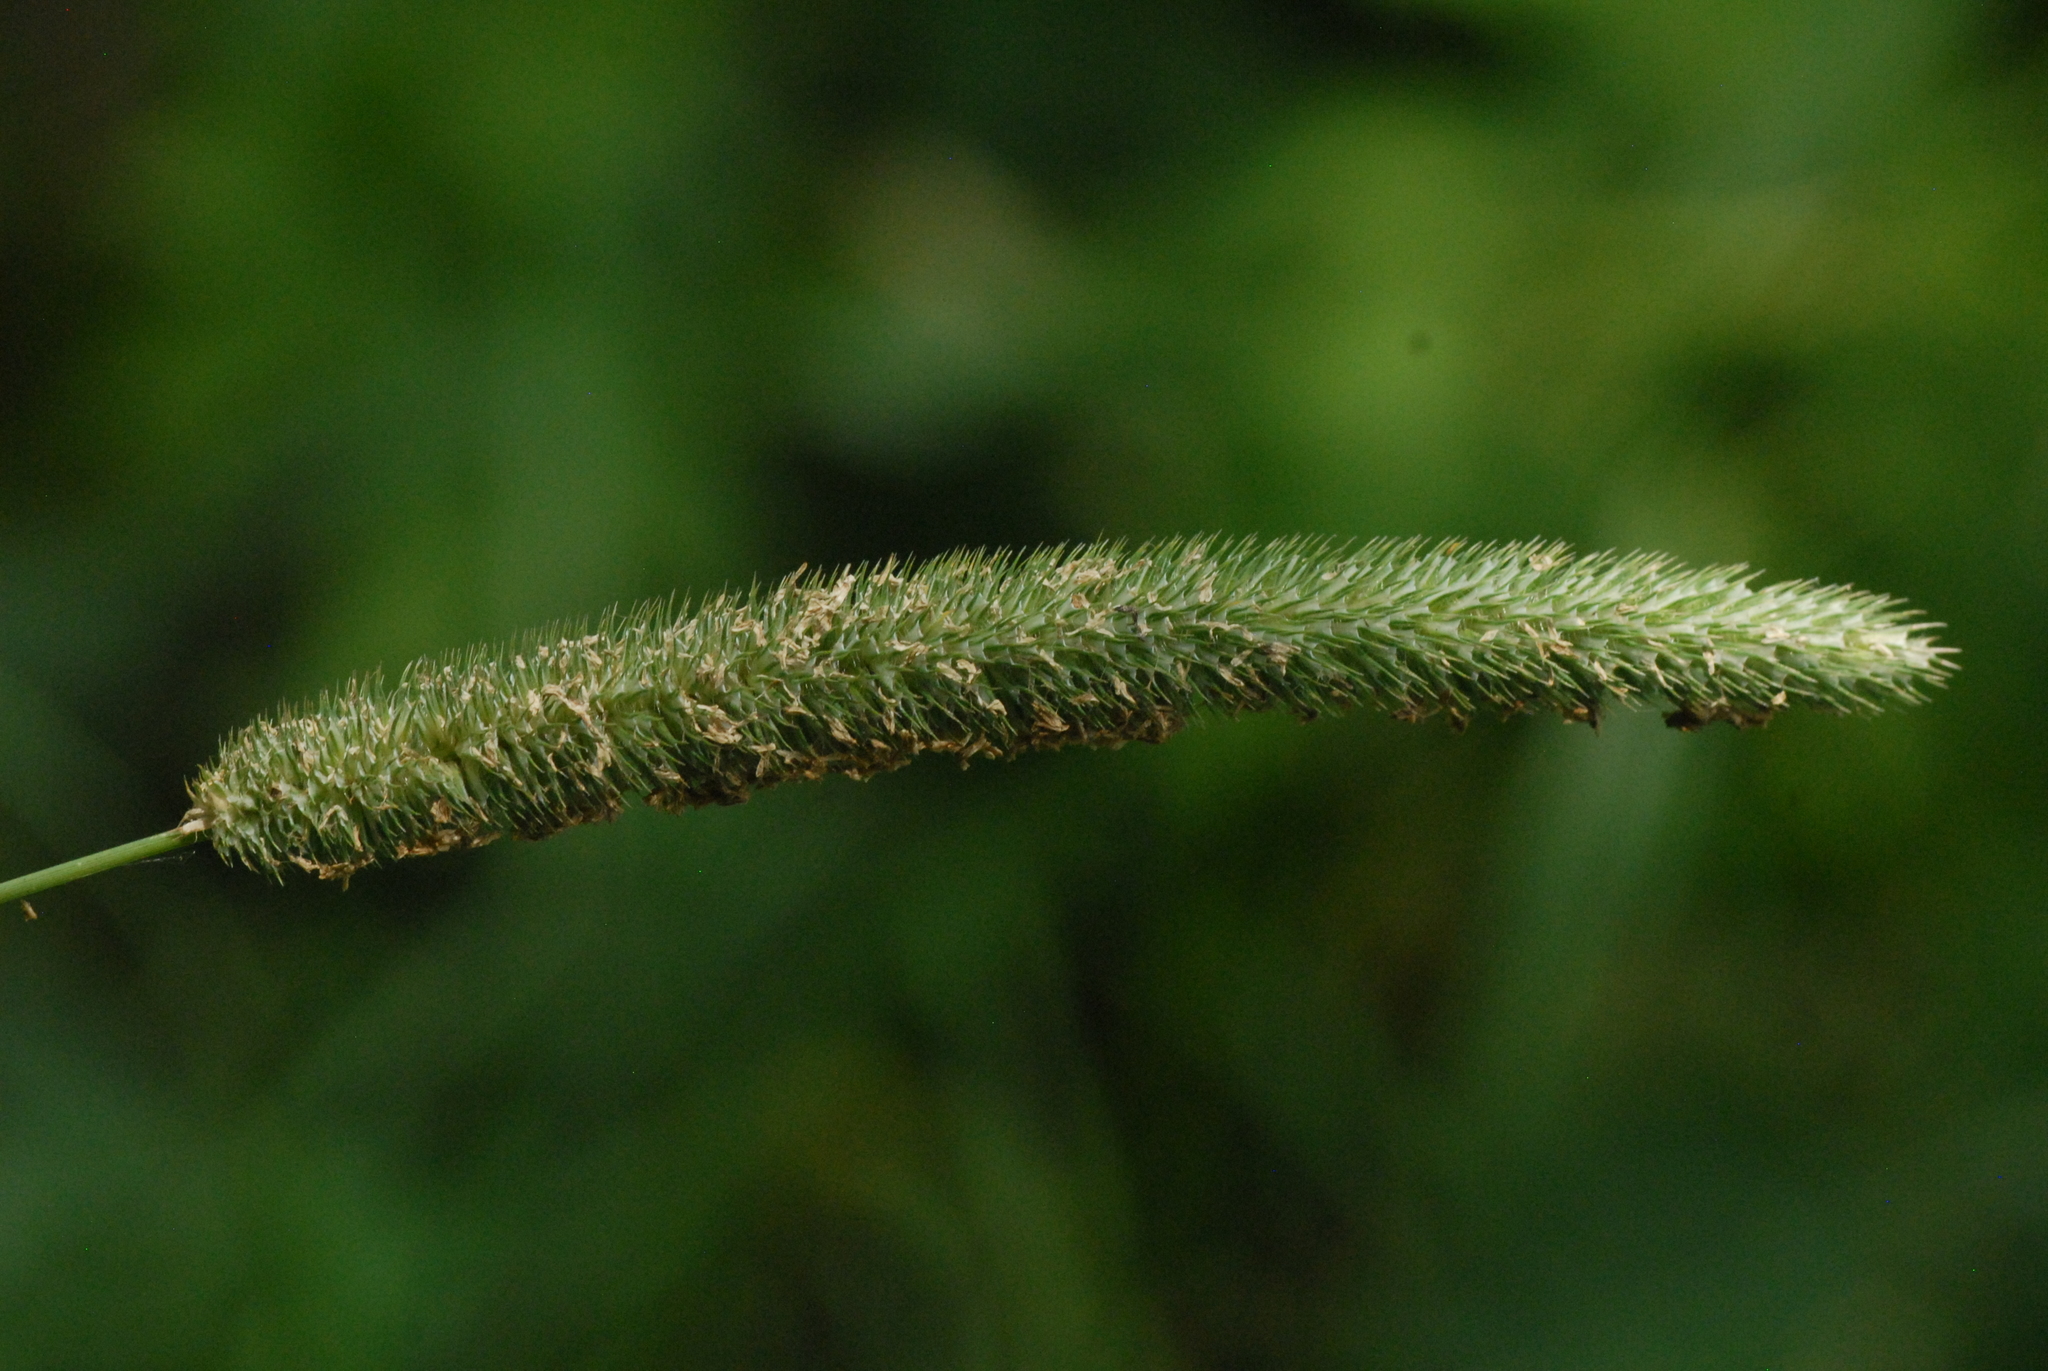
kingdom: Plantae
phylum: Tracheophyta
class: Liliopsida
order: Poales
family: Poaceae
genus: Phleum
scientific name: Phleum pratense
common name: Timothy grass
